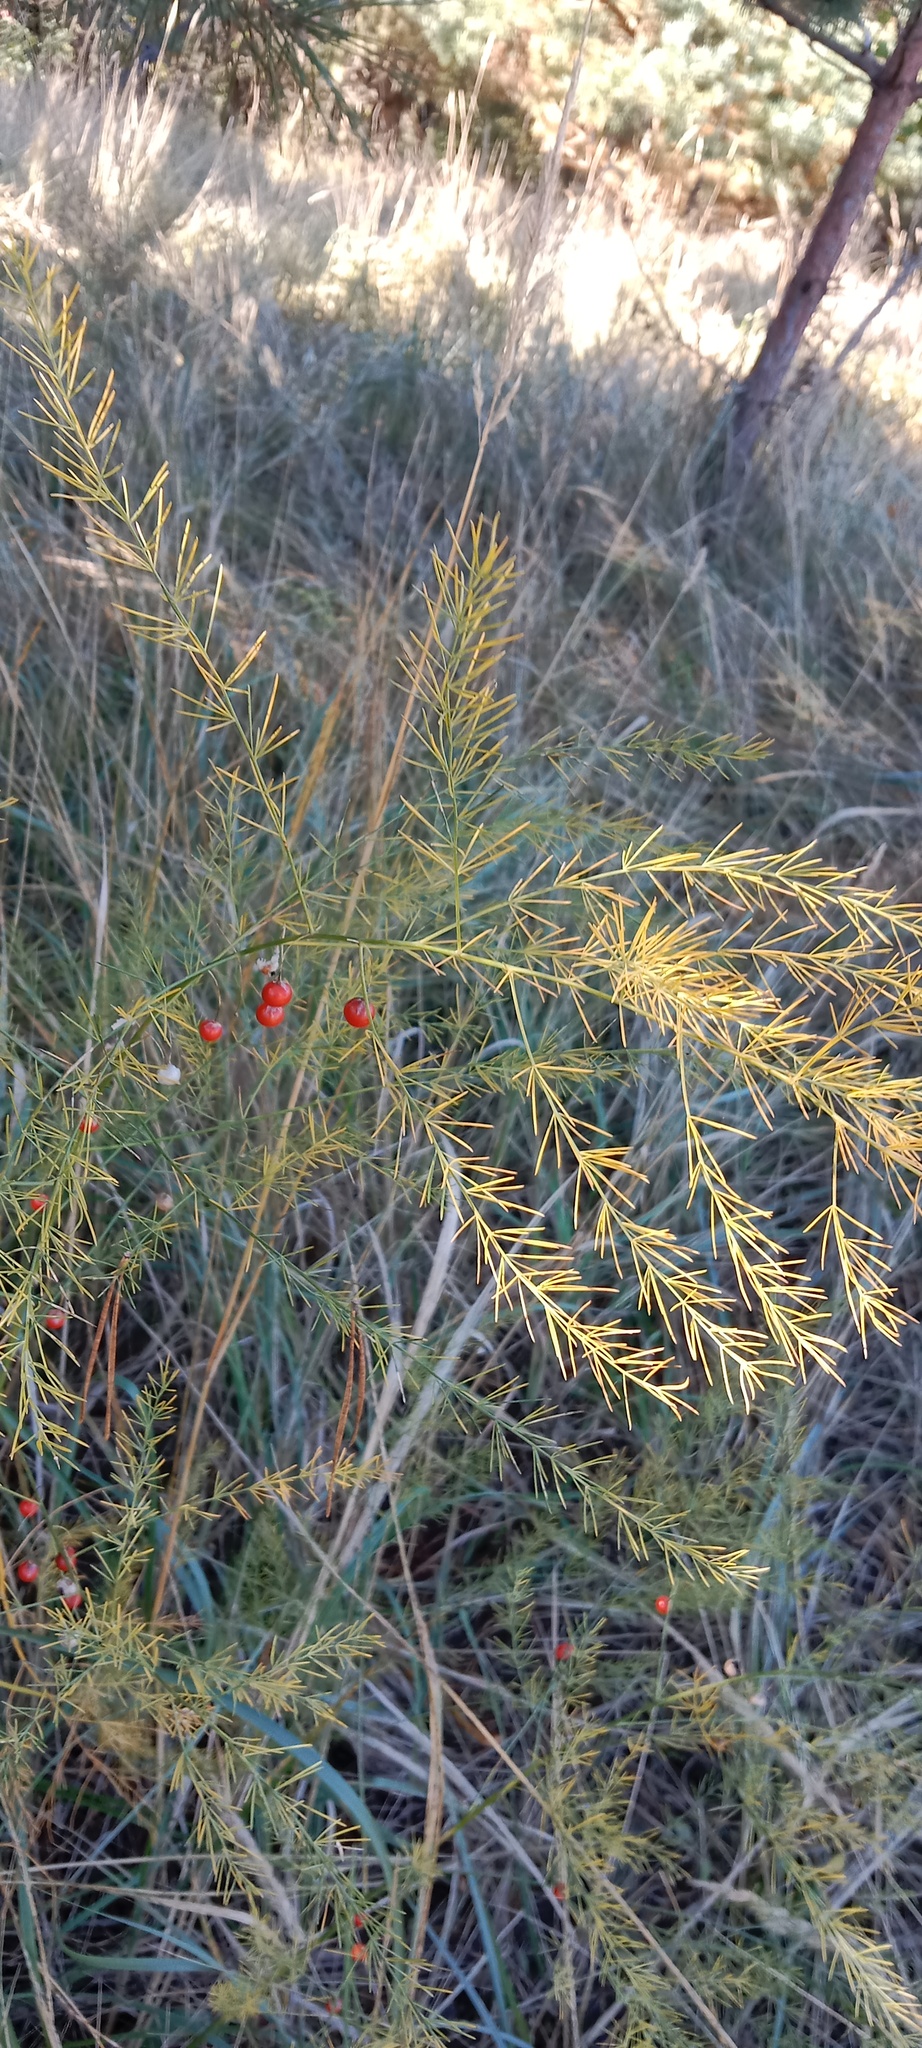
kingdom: Plantae
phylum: Tracheophyta
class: Liliopsida
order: Asparagales
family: Asparagaceae
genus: Asparagus
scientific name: Asparagus officinalis
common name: Garden asparagus
